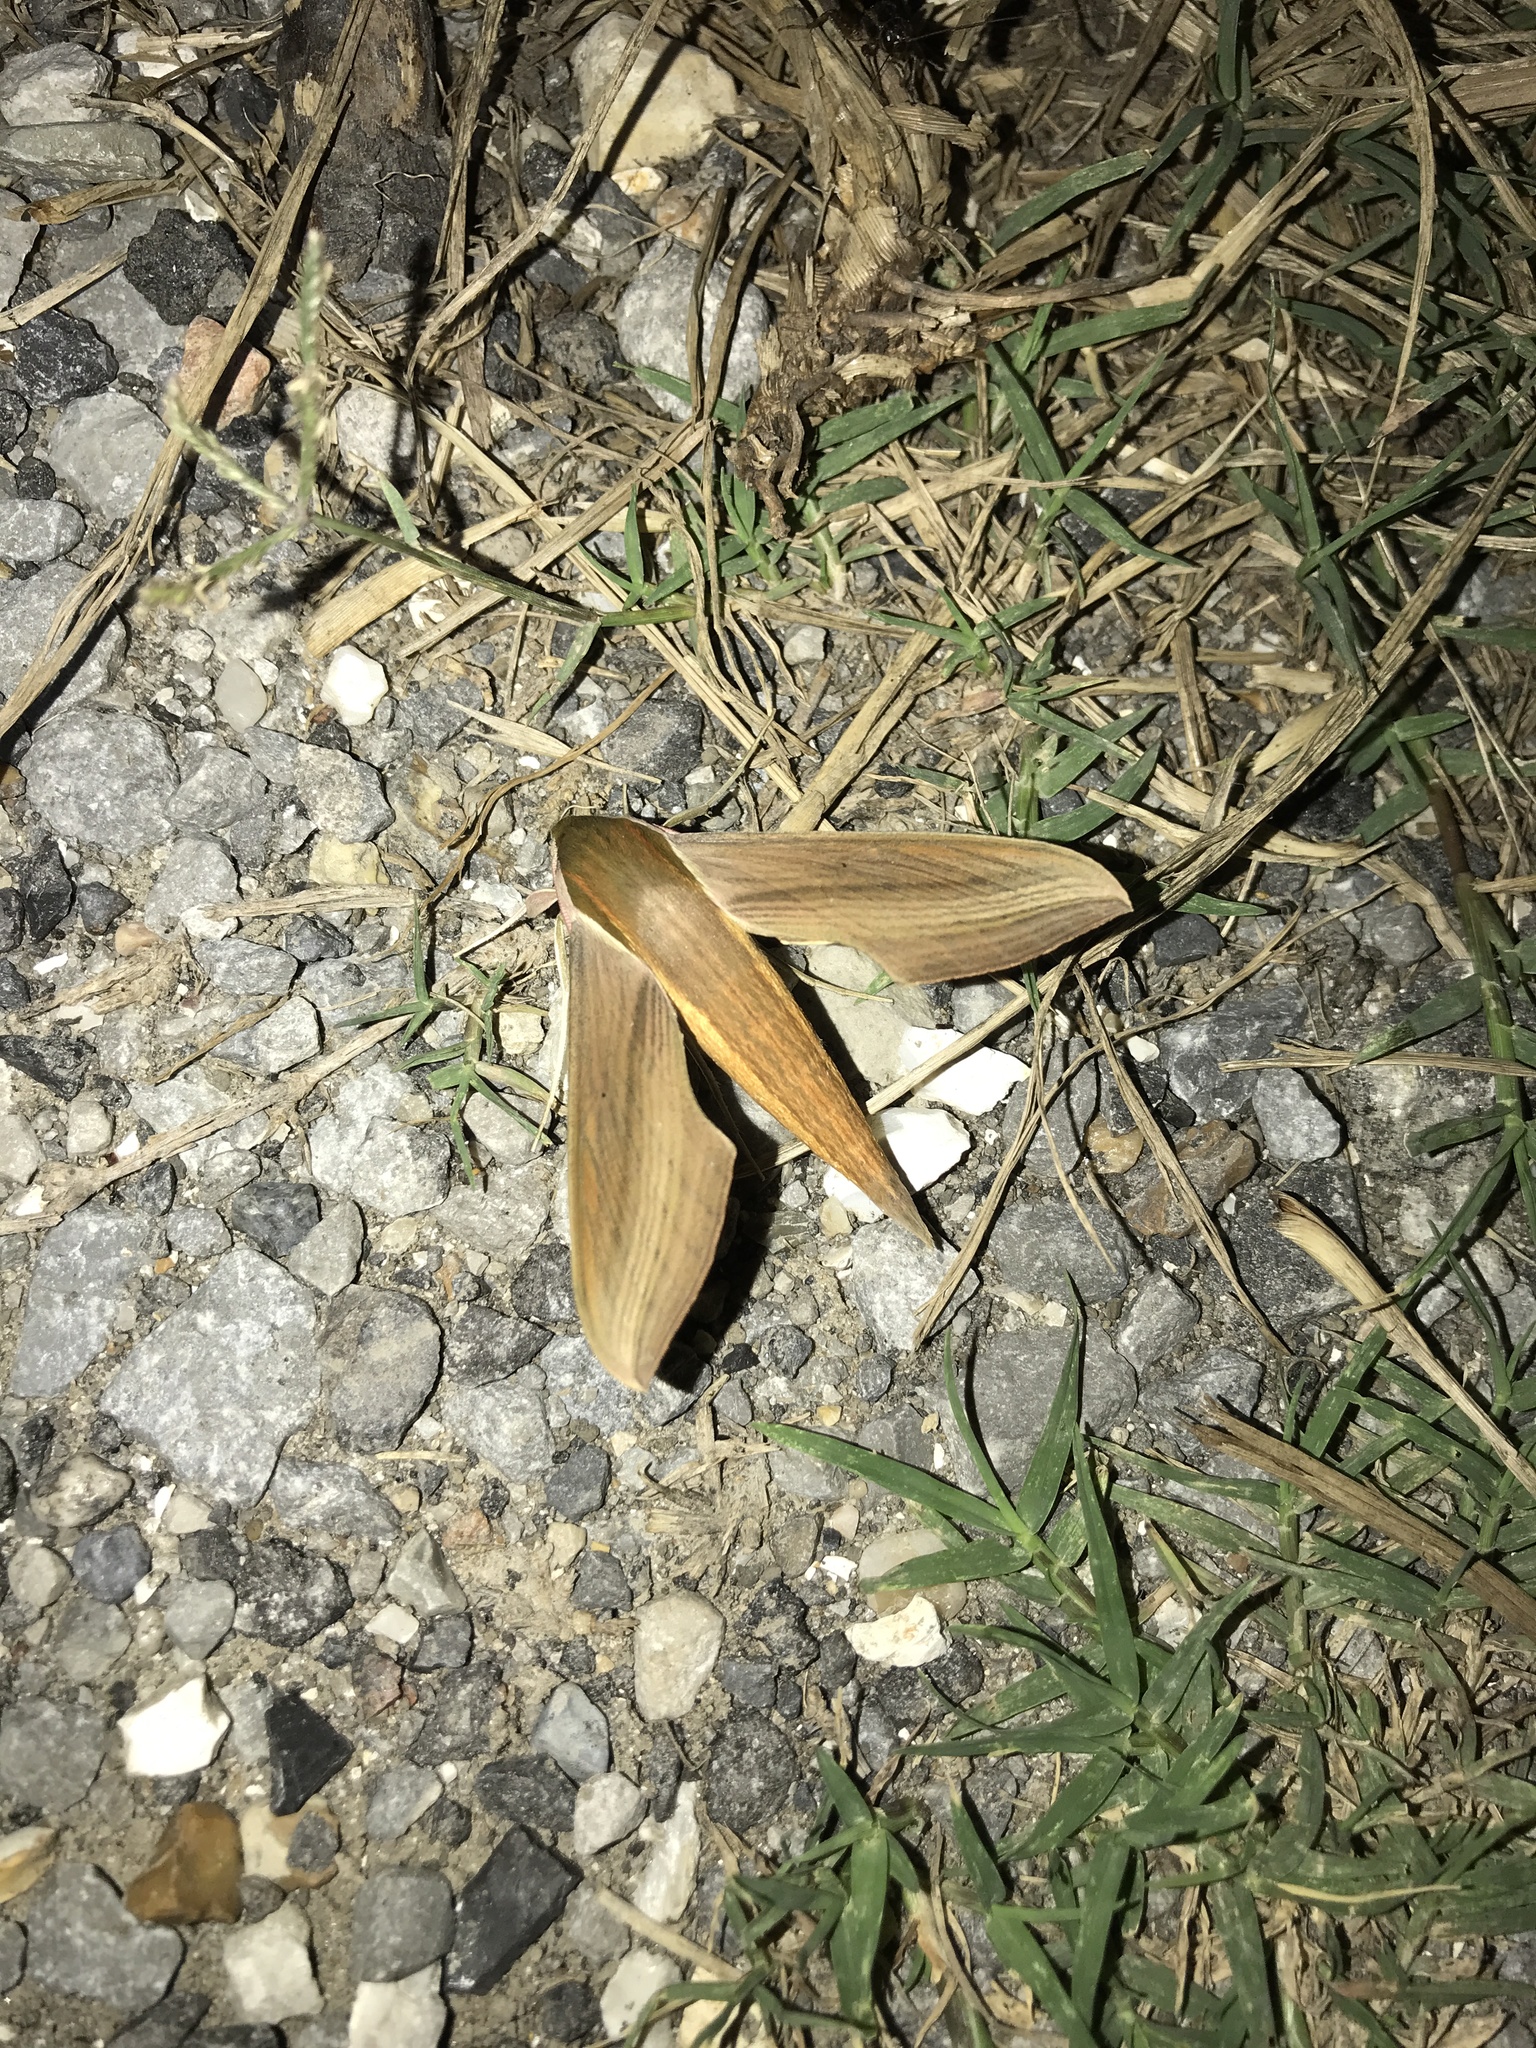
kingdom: Animalia
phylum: Arthropoda
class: Insecta
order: Lepidoptera
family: Sphingidae
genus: Xylophanes
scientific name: Xylophanes tersa
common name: Tersa sphinx
